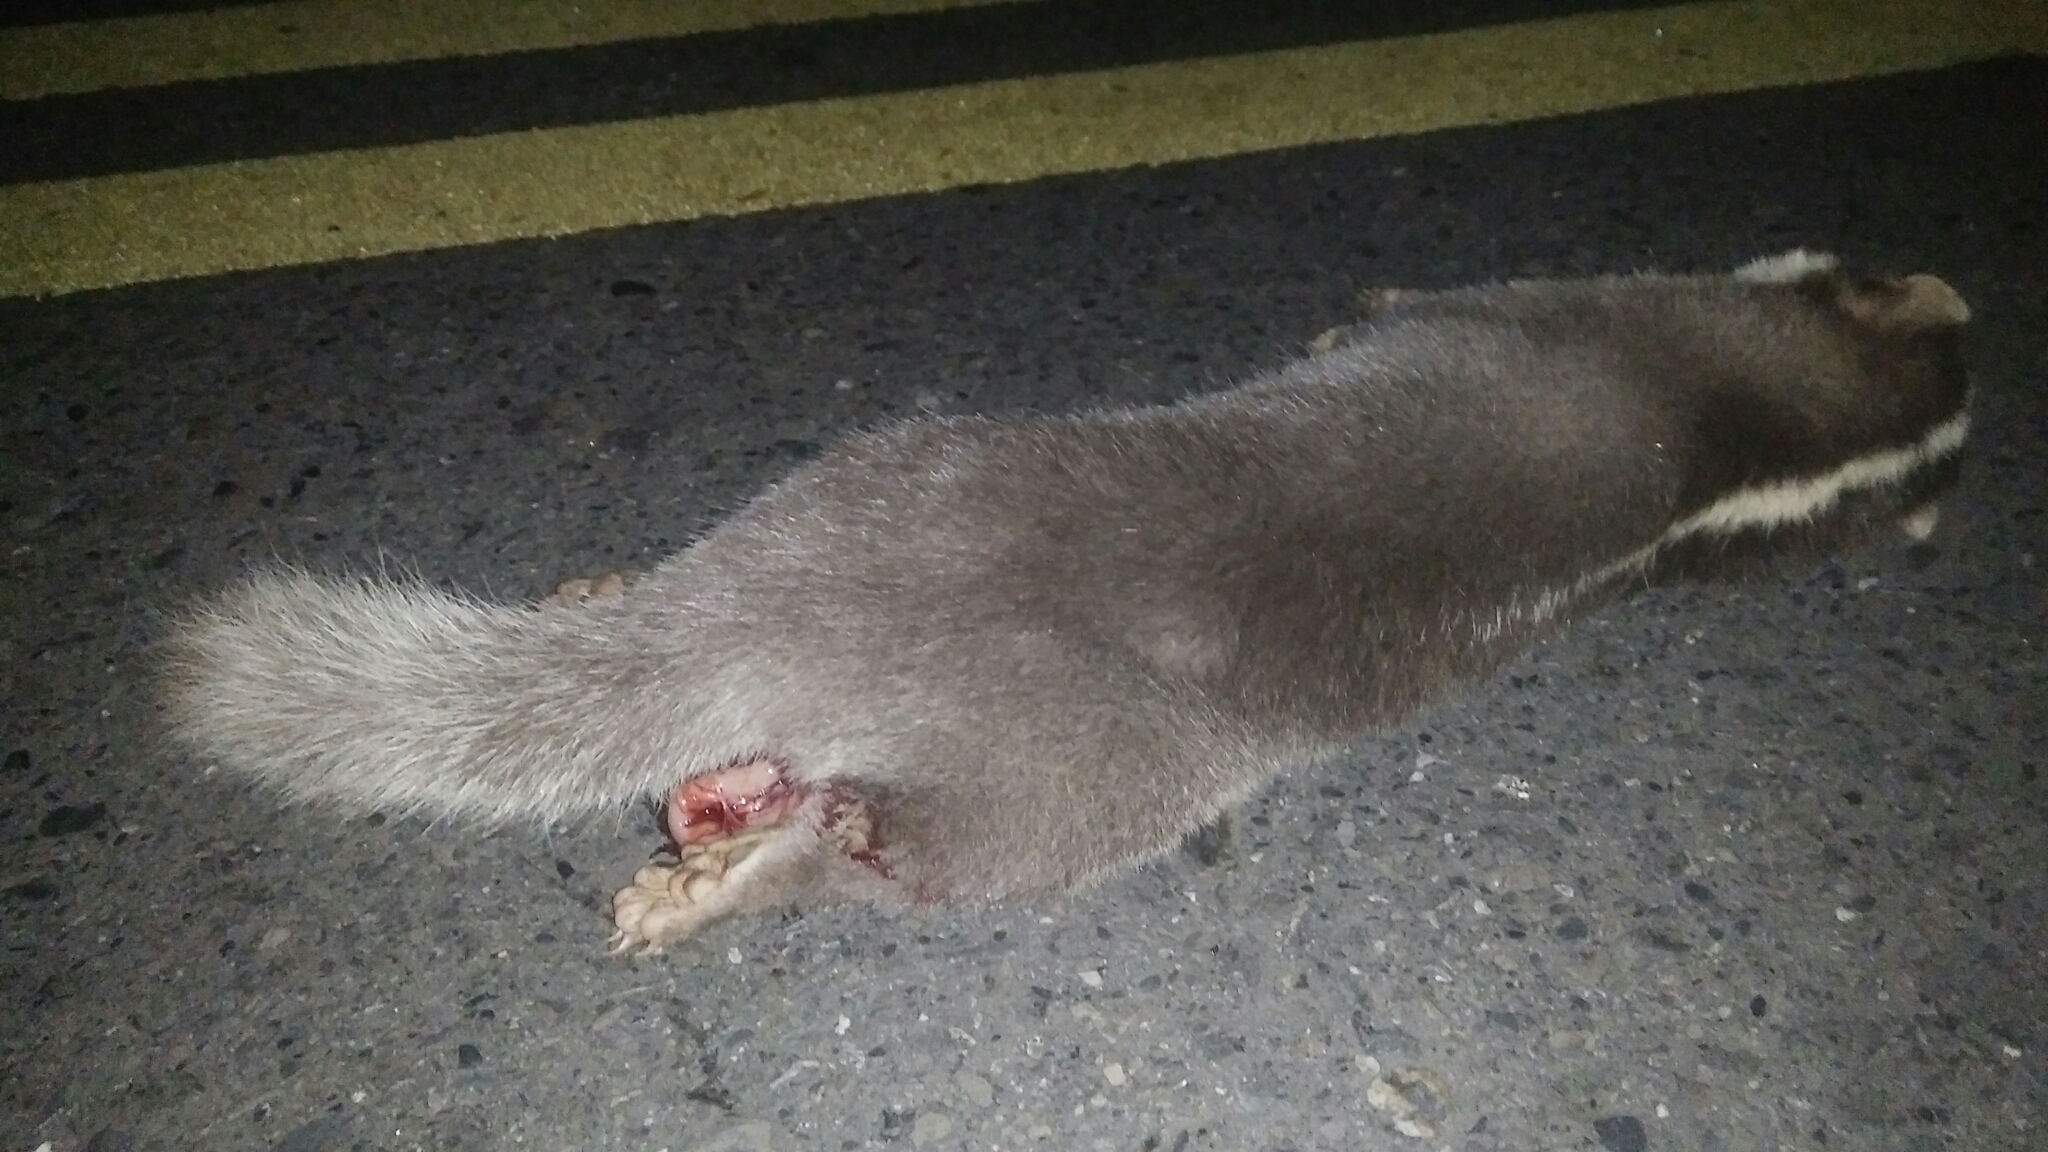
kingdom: Animalia
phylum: Chordata
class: Mammalia
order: Carnivora
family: Mustelidae
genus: Melogale
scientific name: Melogale
